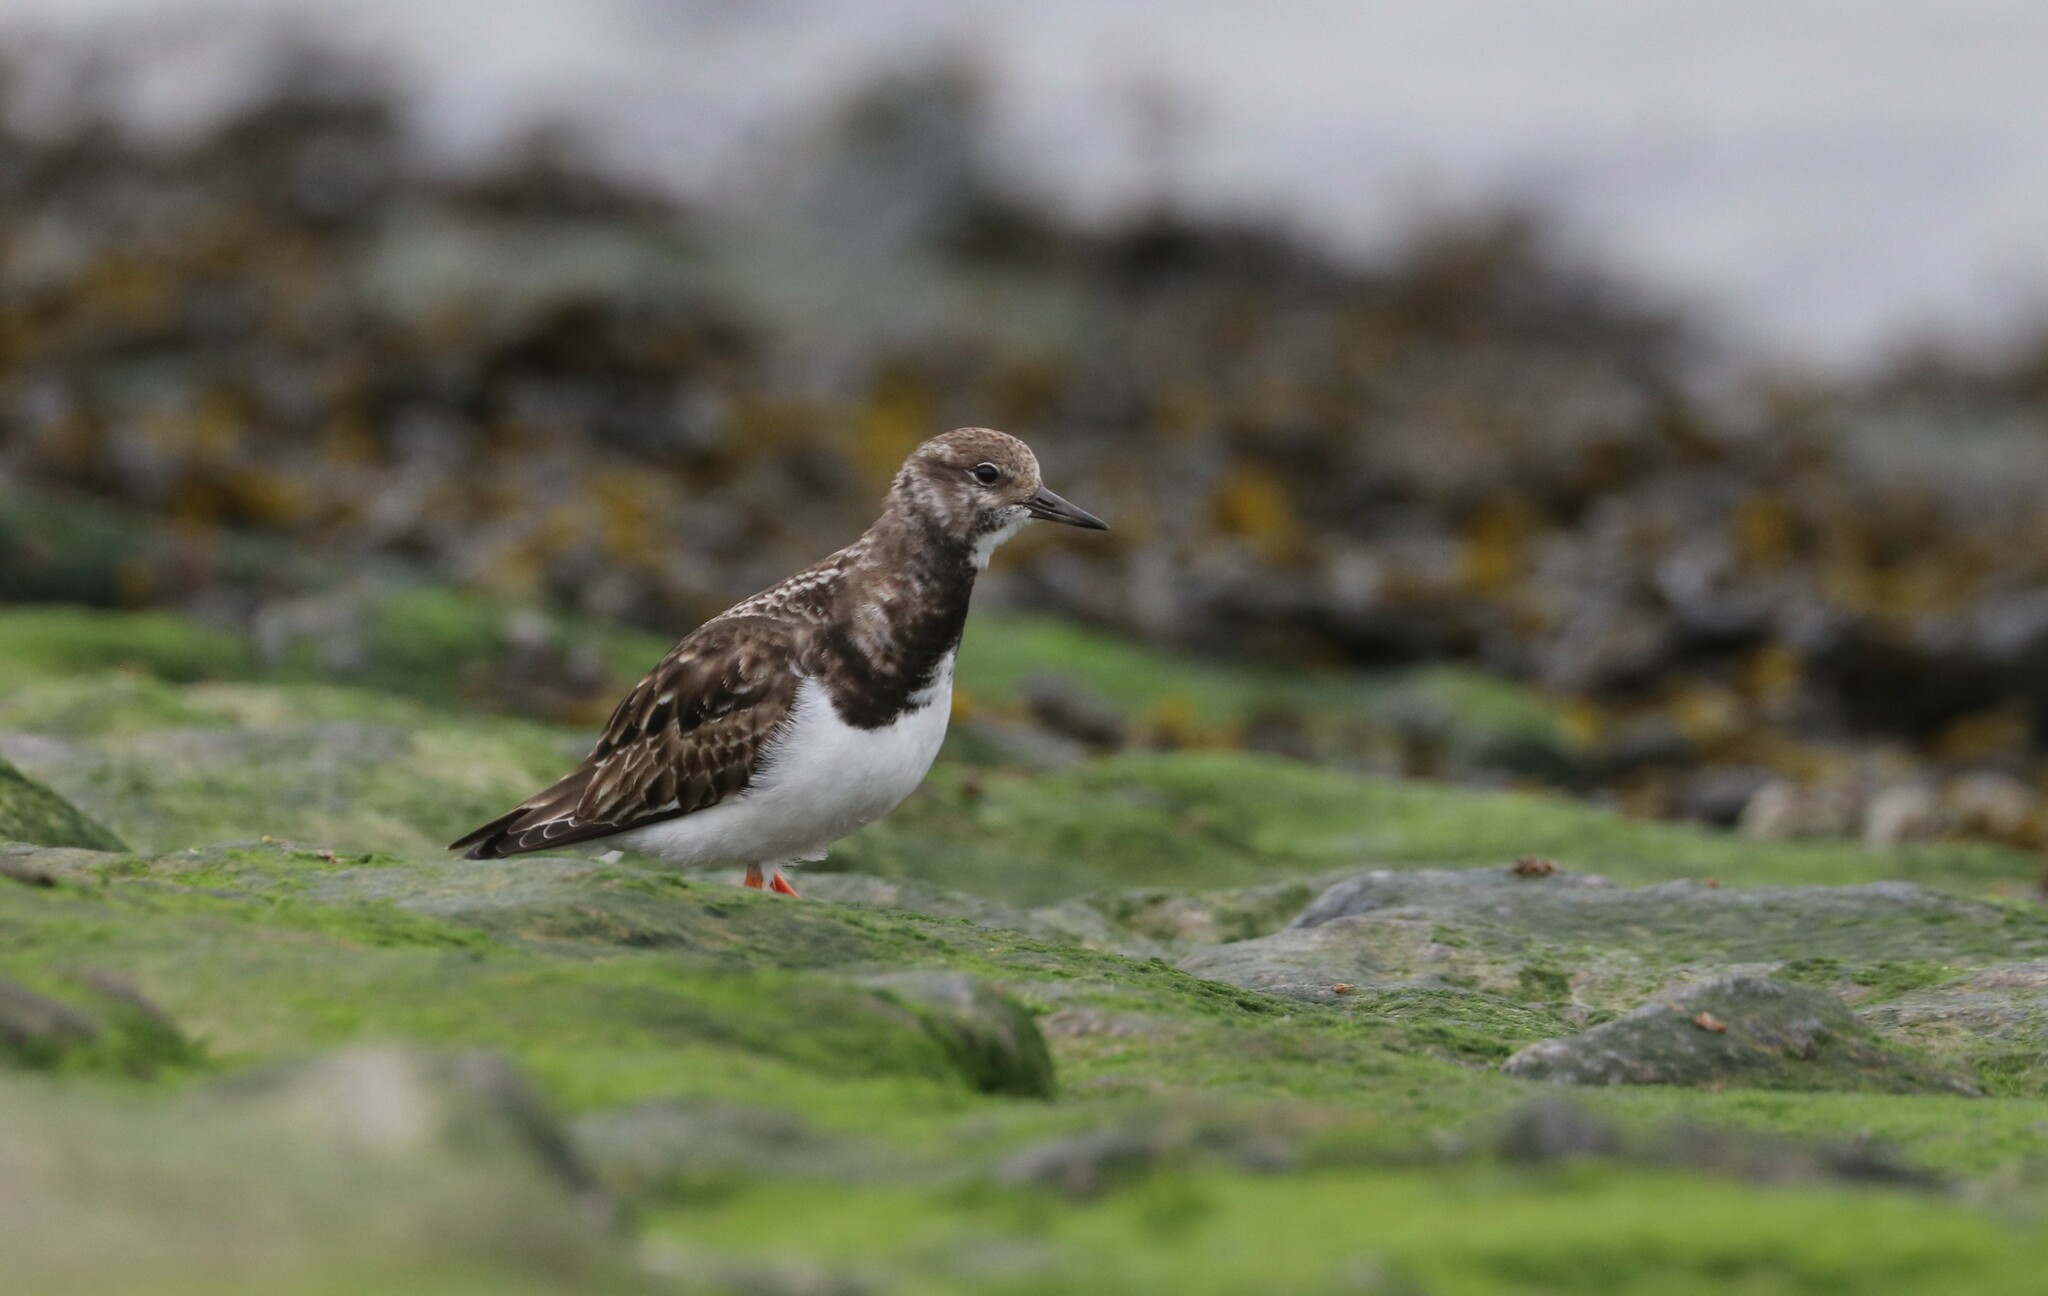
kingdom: Animalia
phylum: Chordata
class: Aves
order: Charadriiformes
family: Scolopacidae
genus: Arenaria
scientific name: Arenaria interpres
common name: Ruddy turnstone
